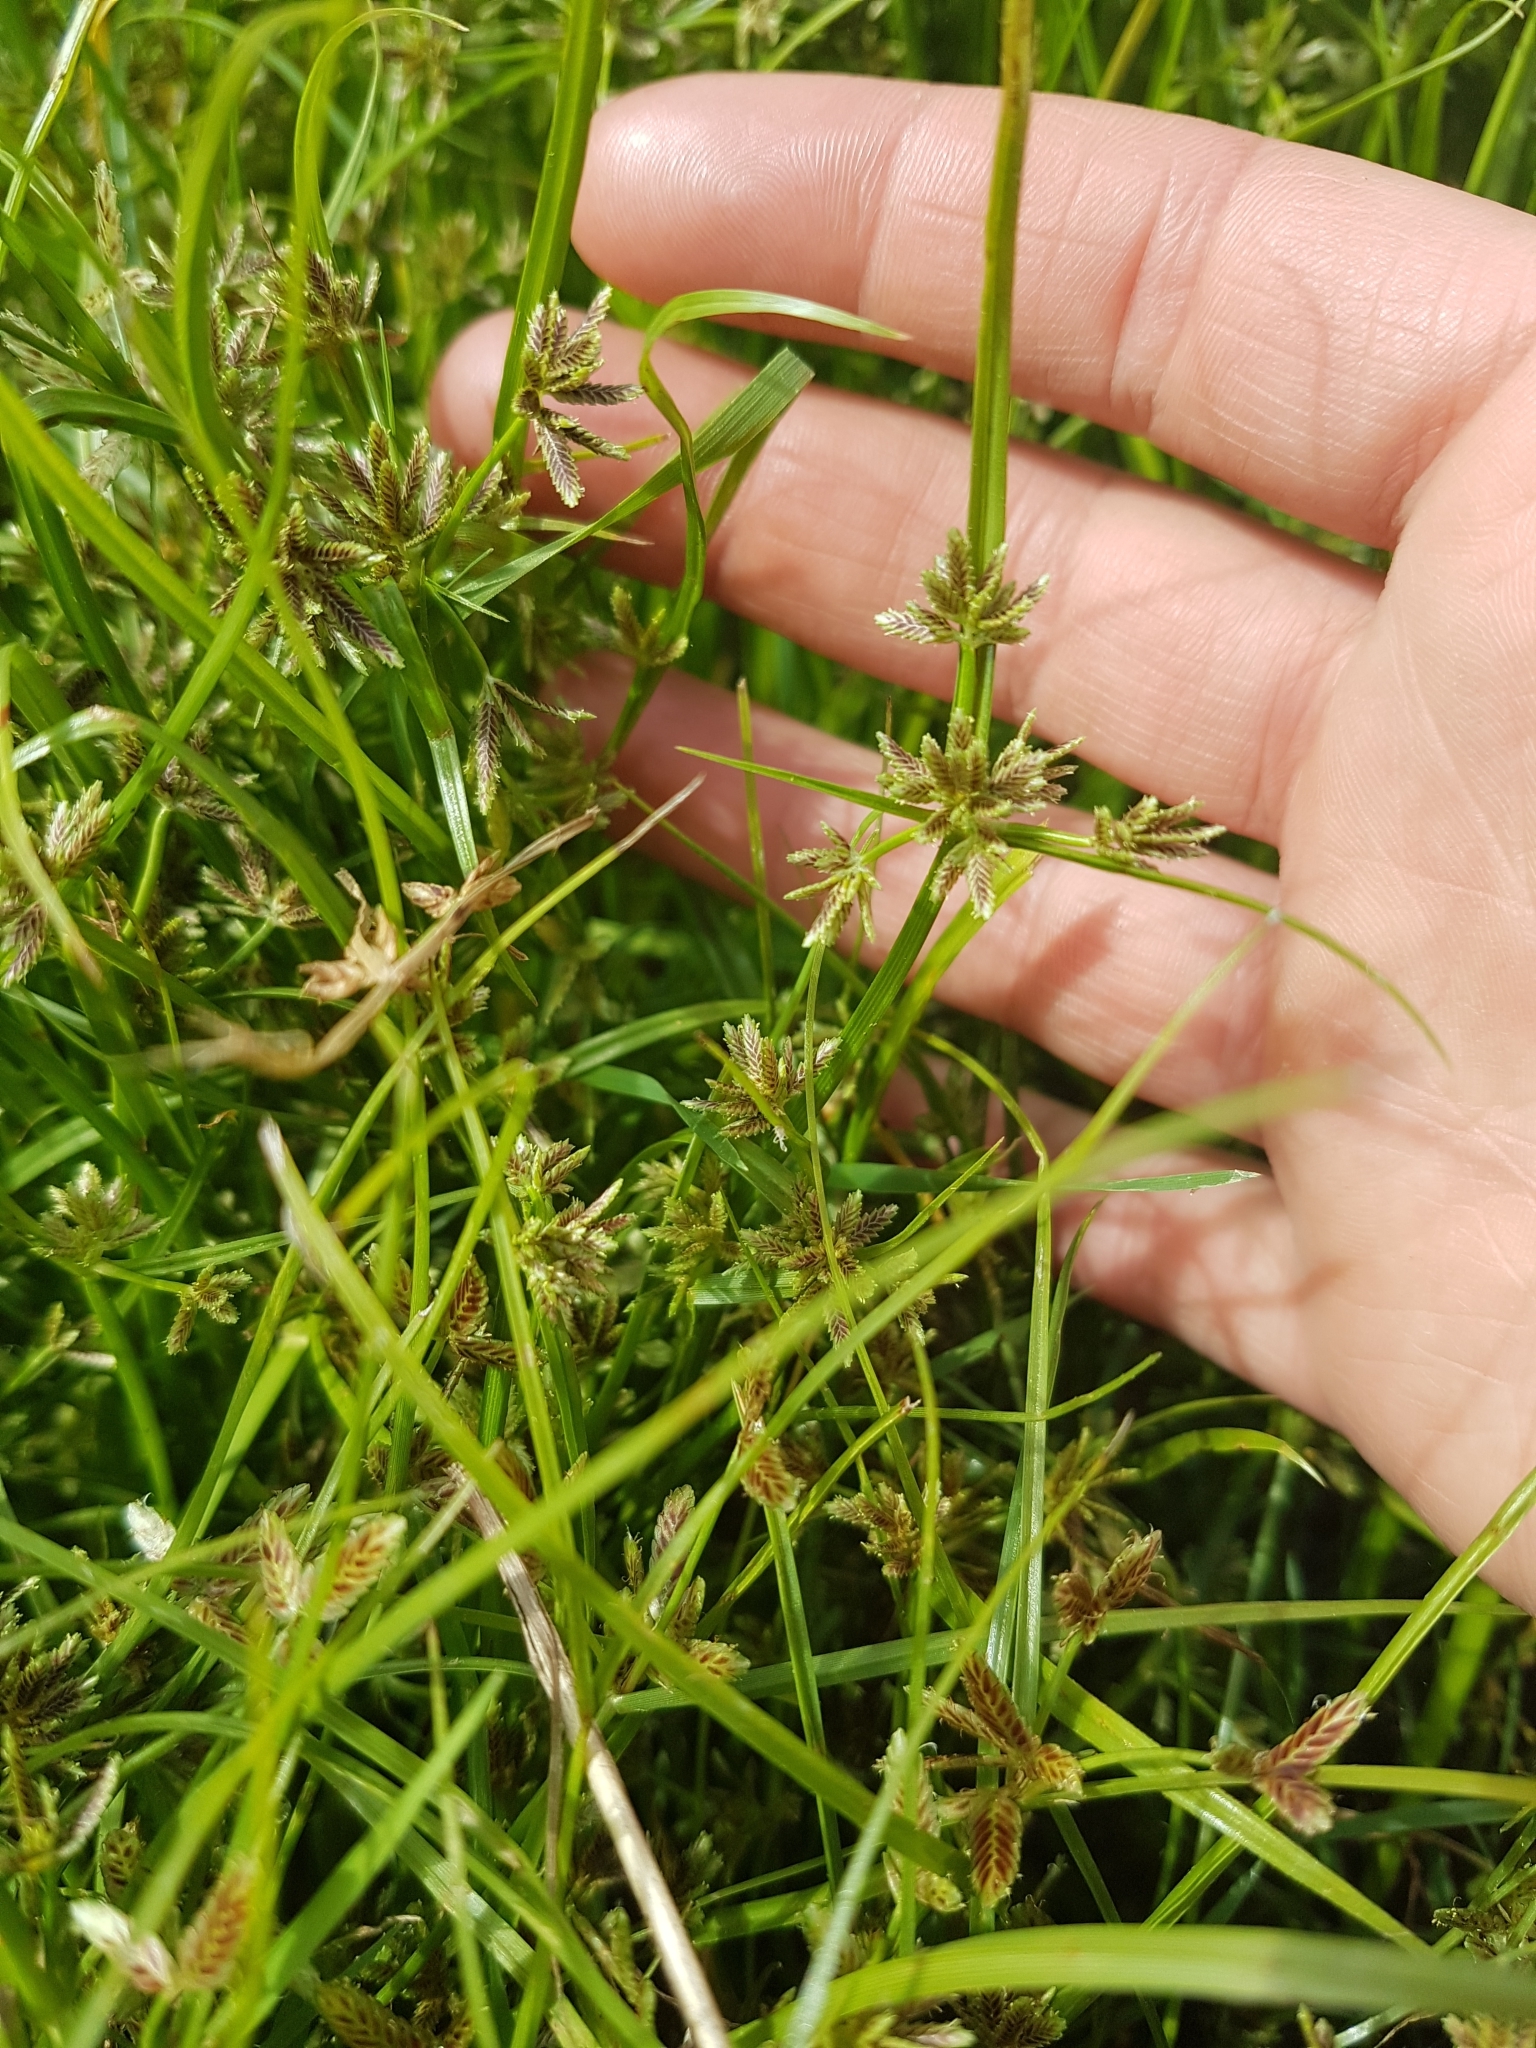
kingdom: Plantae
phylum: Tracheophyta
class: Liliopsida
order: Poales
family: Cyperaceae
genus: Cyperus
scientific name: Cyperus bipartitus
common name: Brook flatsedge
